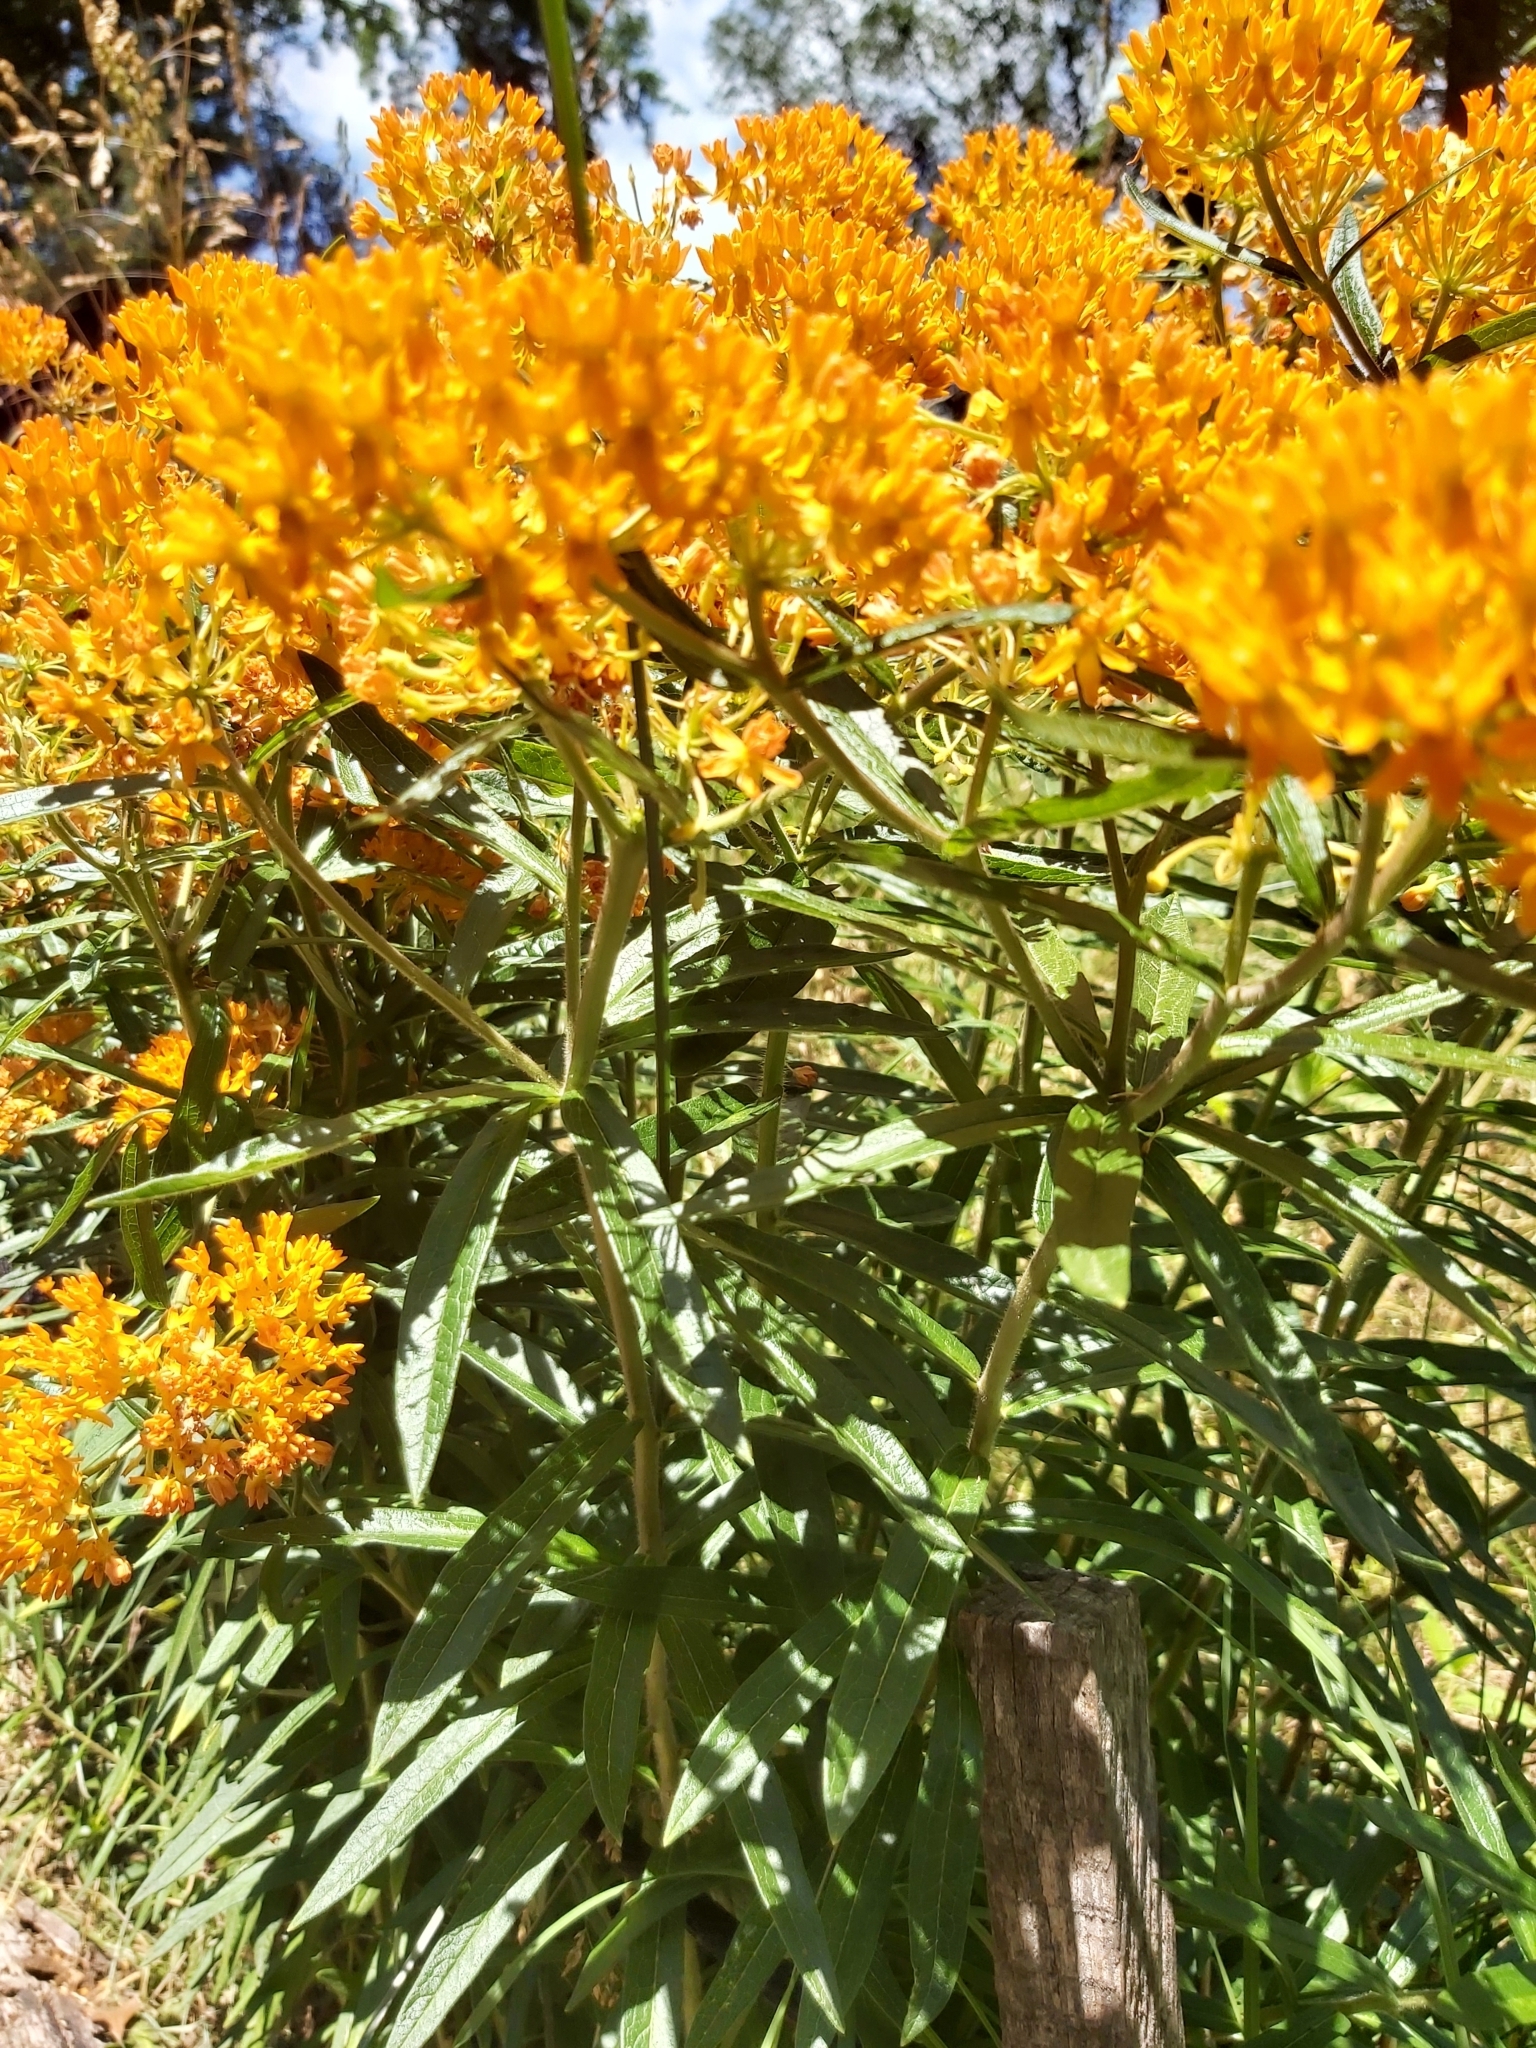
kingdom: Plantae
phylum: Tracheophyta
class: Magnoliopsida
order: Gentianales
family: Apocynaceae
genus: Asclepias
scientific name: Asclepias tuberosa
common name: Butterfly milkweed
